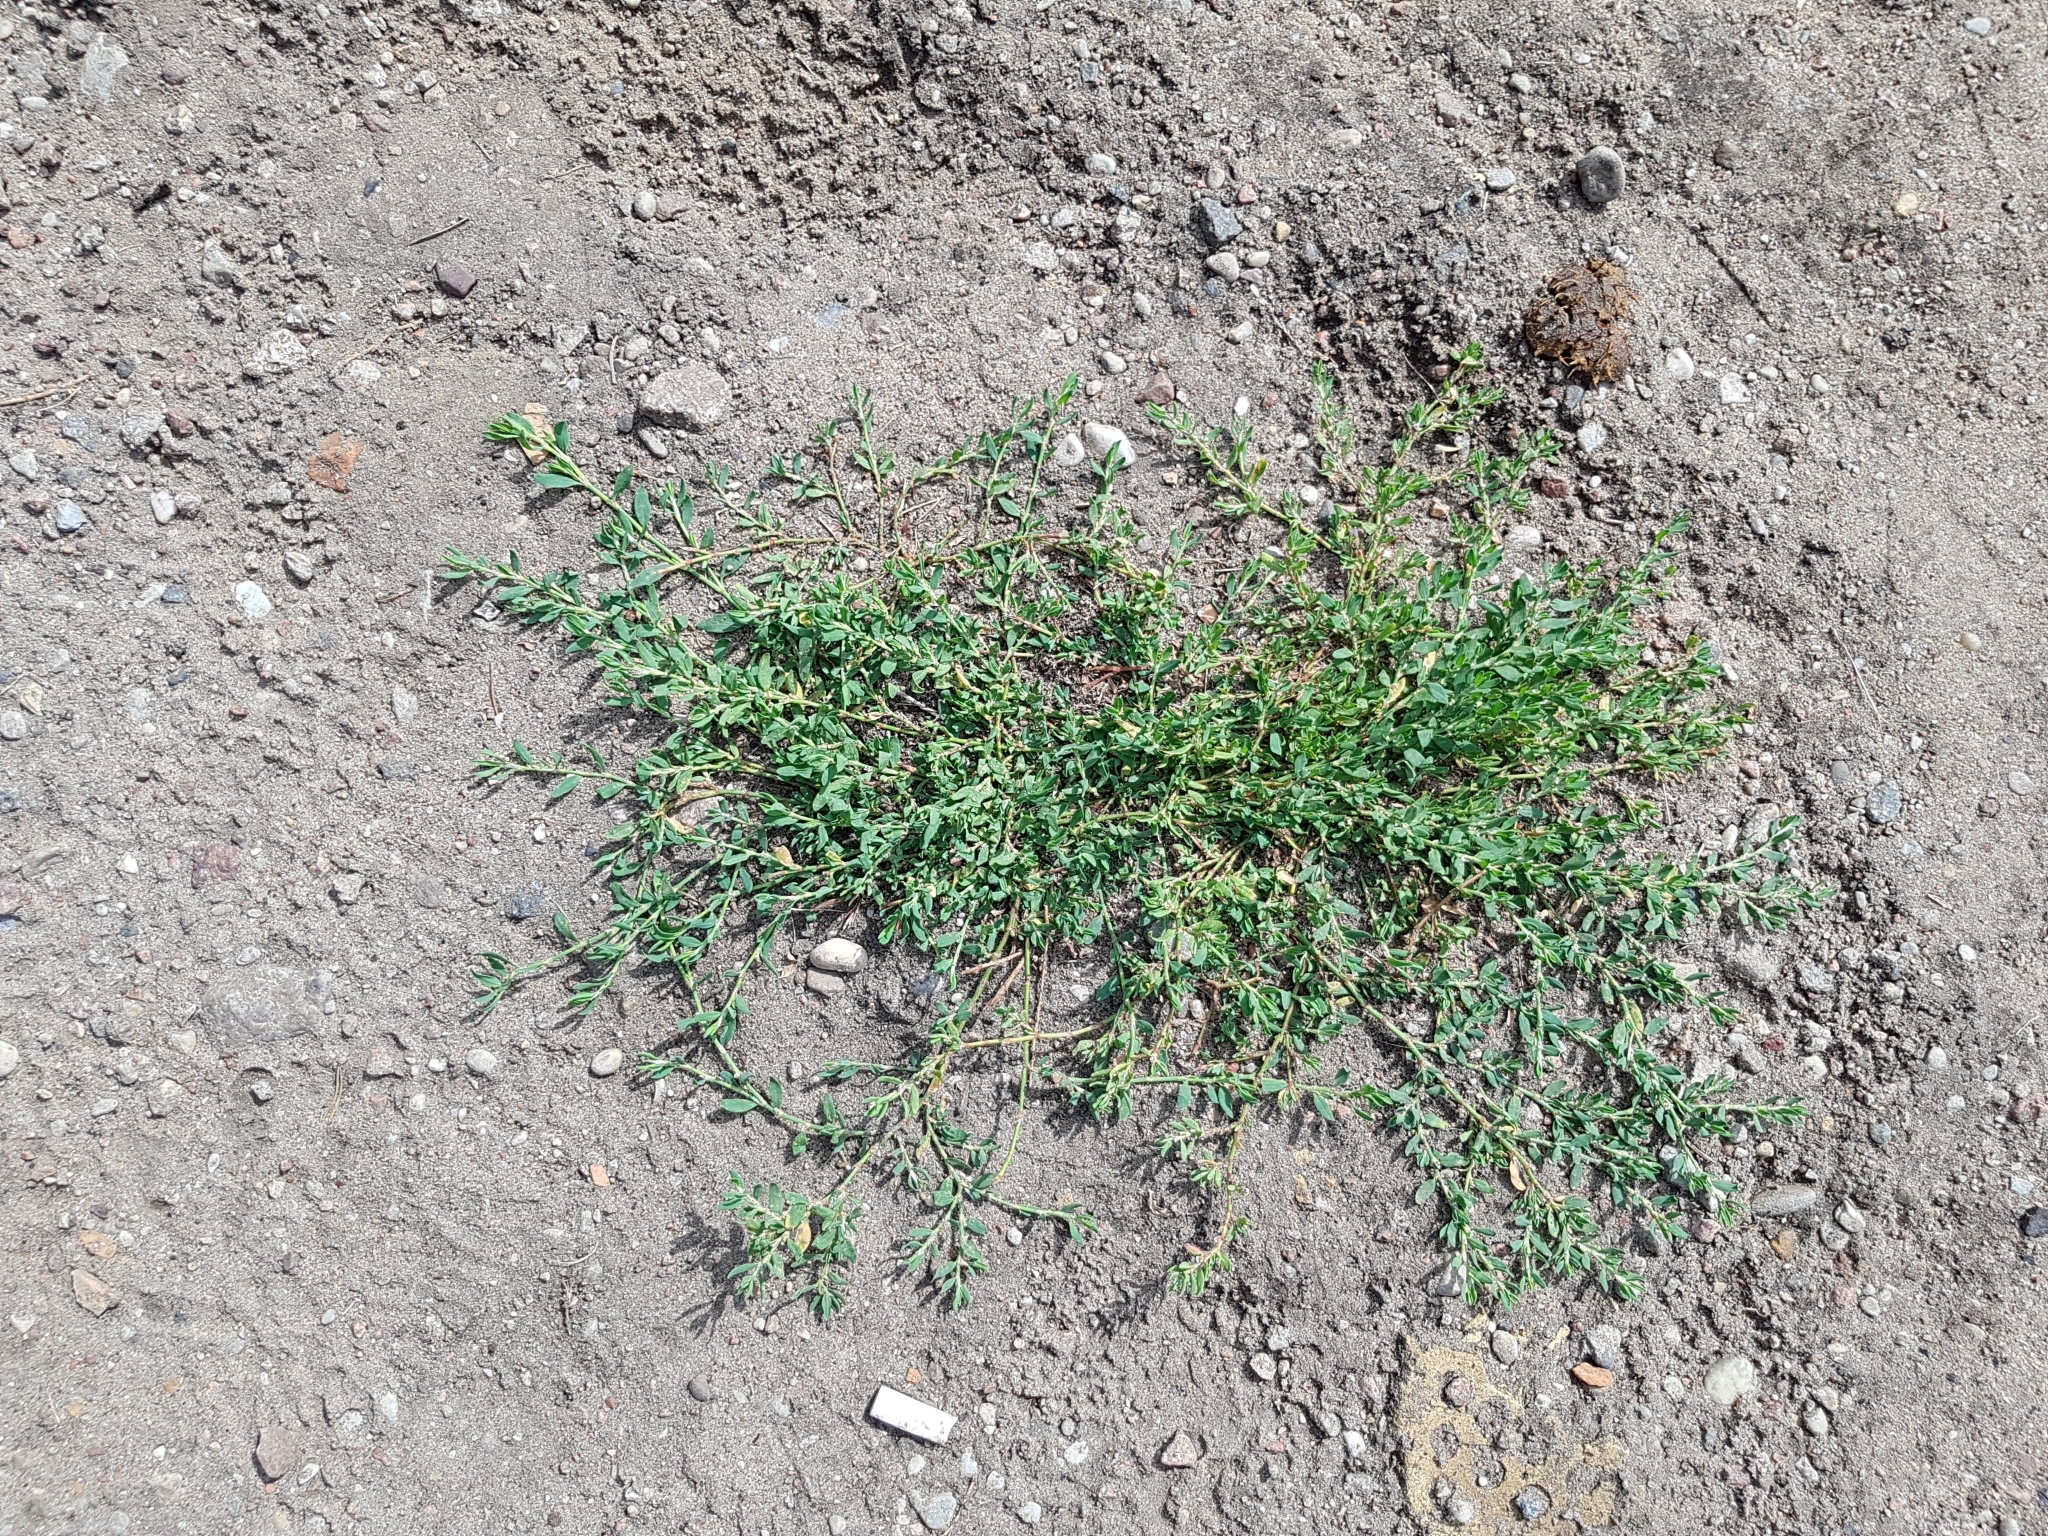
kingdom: Plantae
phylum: Tracheophyta
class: Magnoliopsida
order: Caryophyllales
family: Polygonaceae
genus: Polygonum
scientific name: Polygonum aviculare
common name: Prostrate knotweed
